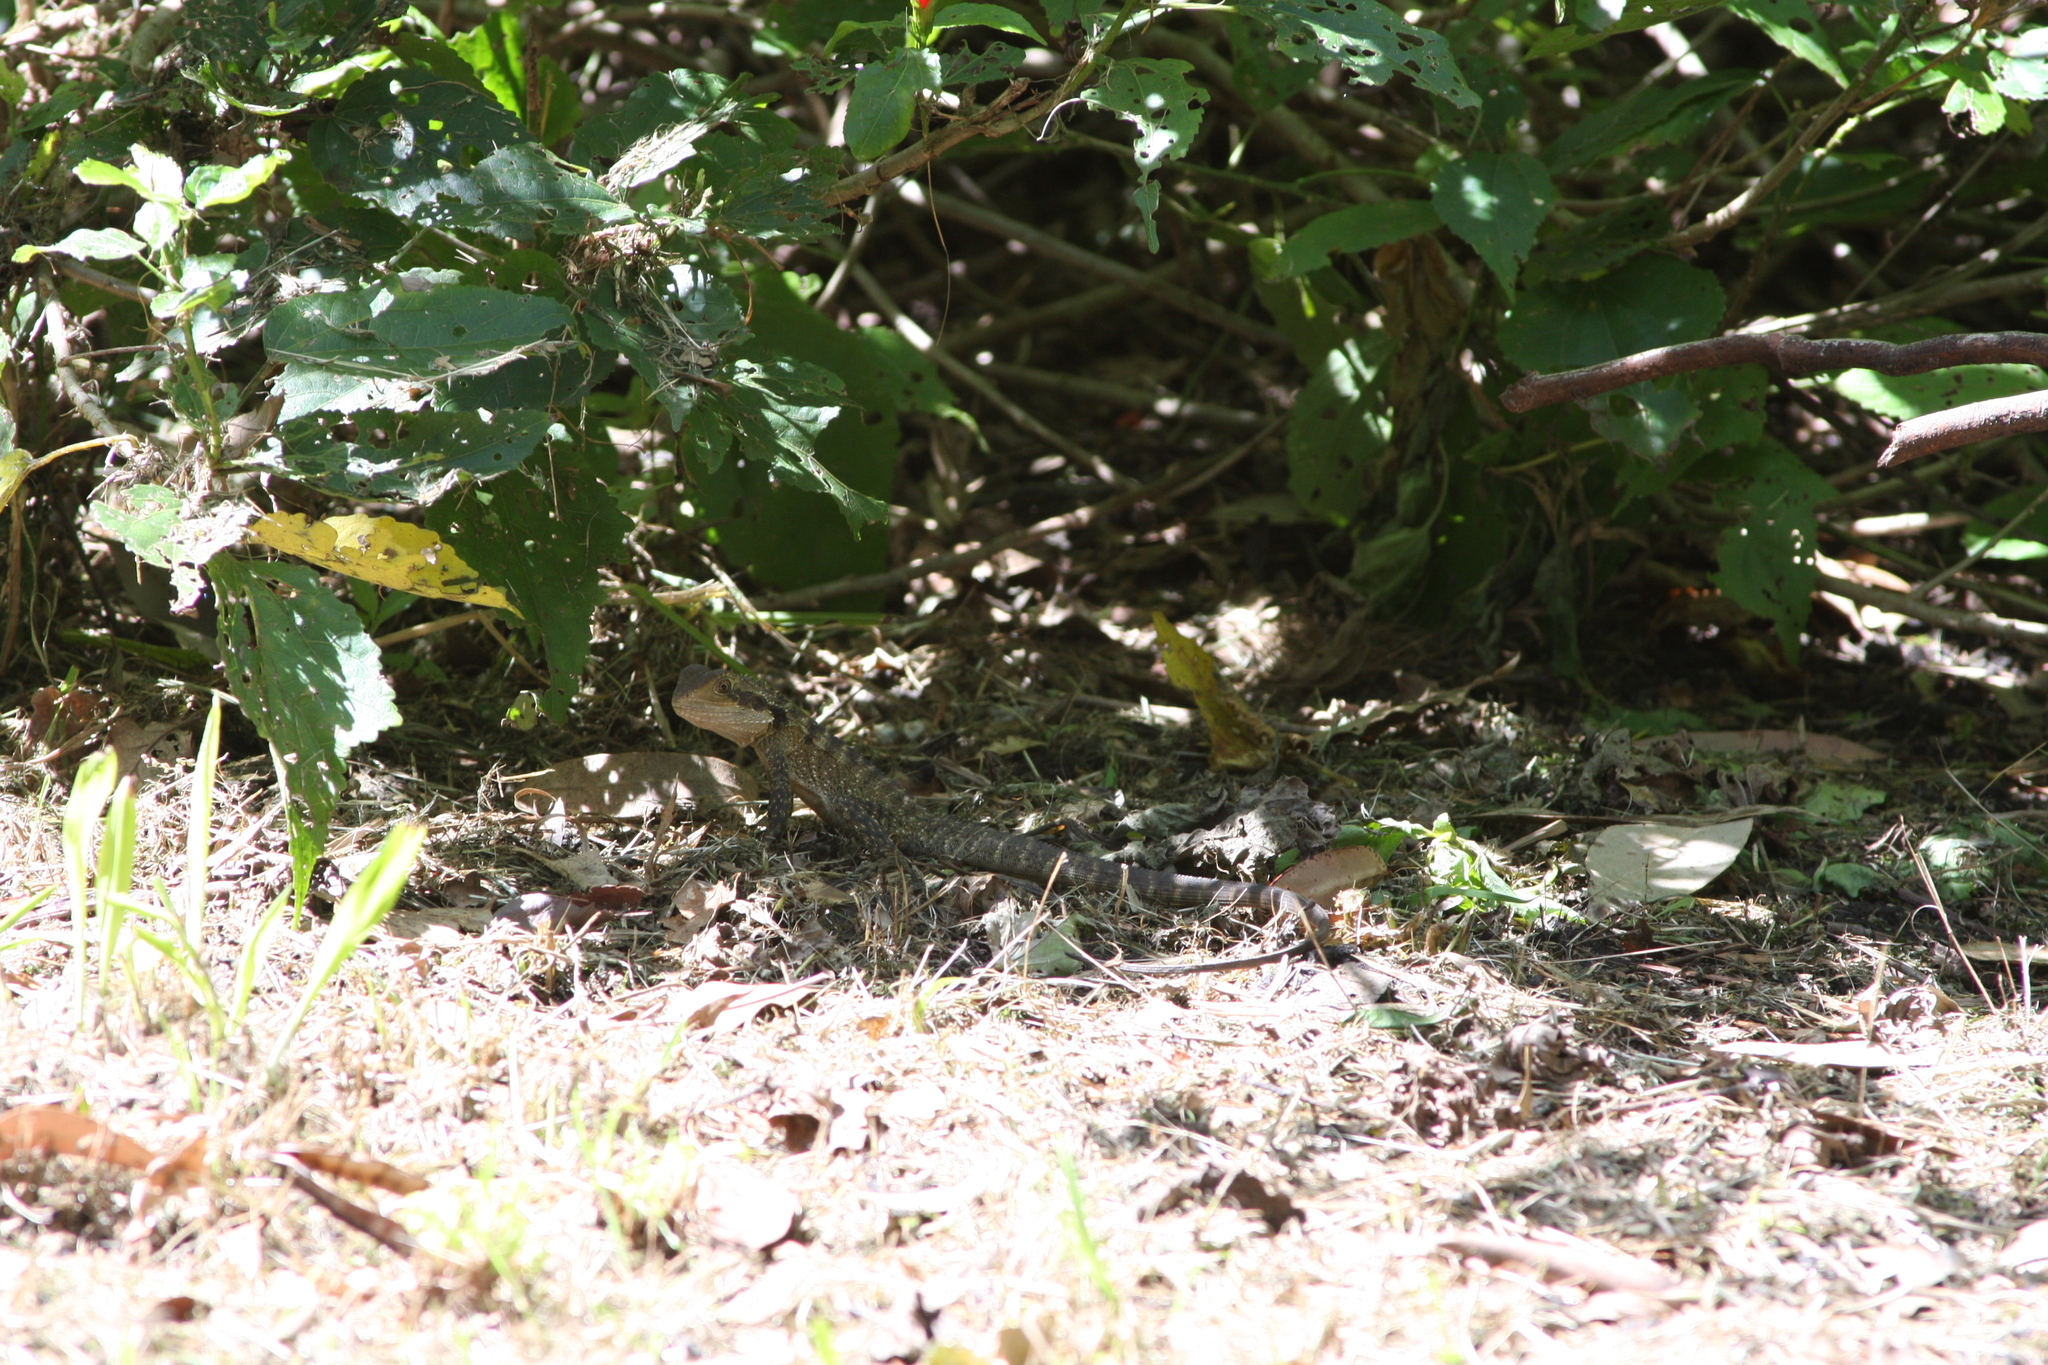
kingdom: Animalia
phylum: Chordata
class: Squamata
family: Agamidae
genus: Intellagama
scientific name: Intellagama lesueurii
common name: Eastern water dragon
